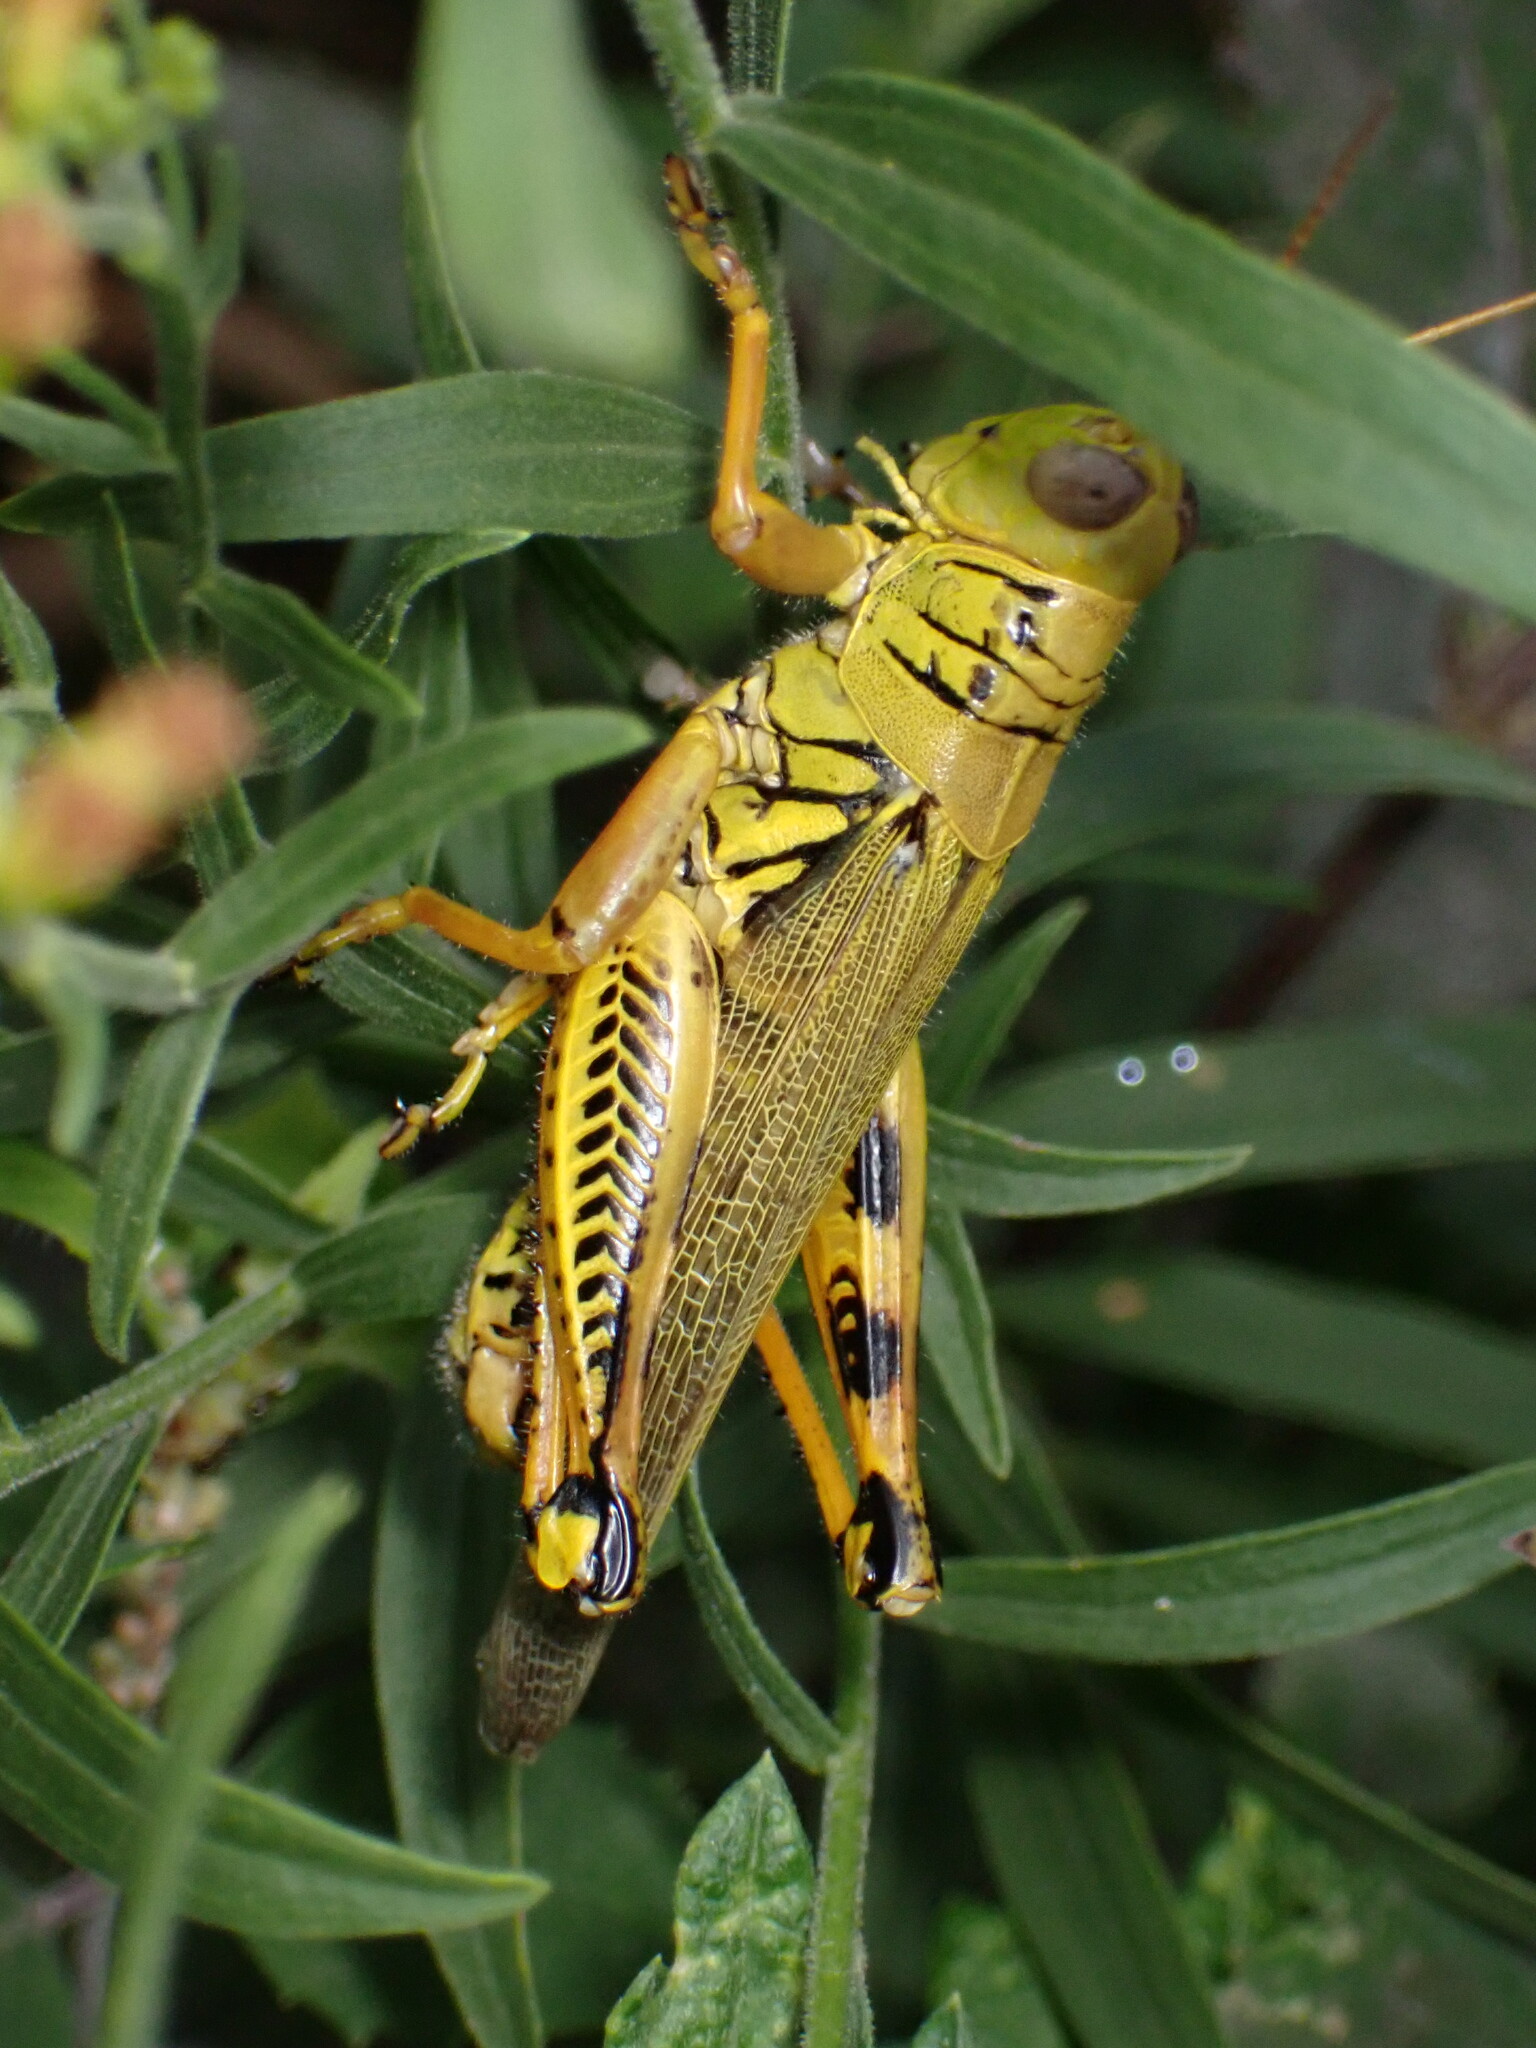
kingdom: Animalia
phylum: Arthropoda
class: Insecta
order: Orthoptera
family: Acrididae
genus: Melanoplus
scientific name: Melanoplus differentialis
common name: Differential grasshopper
